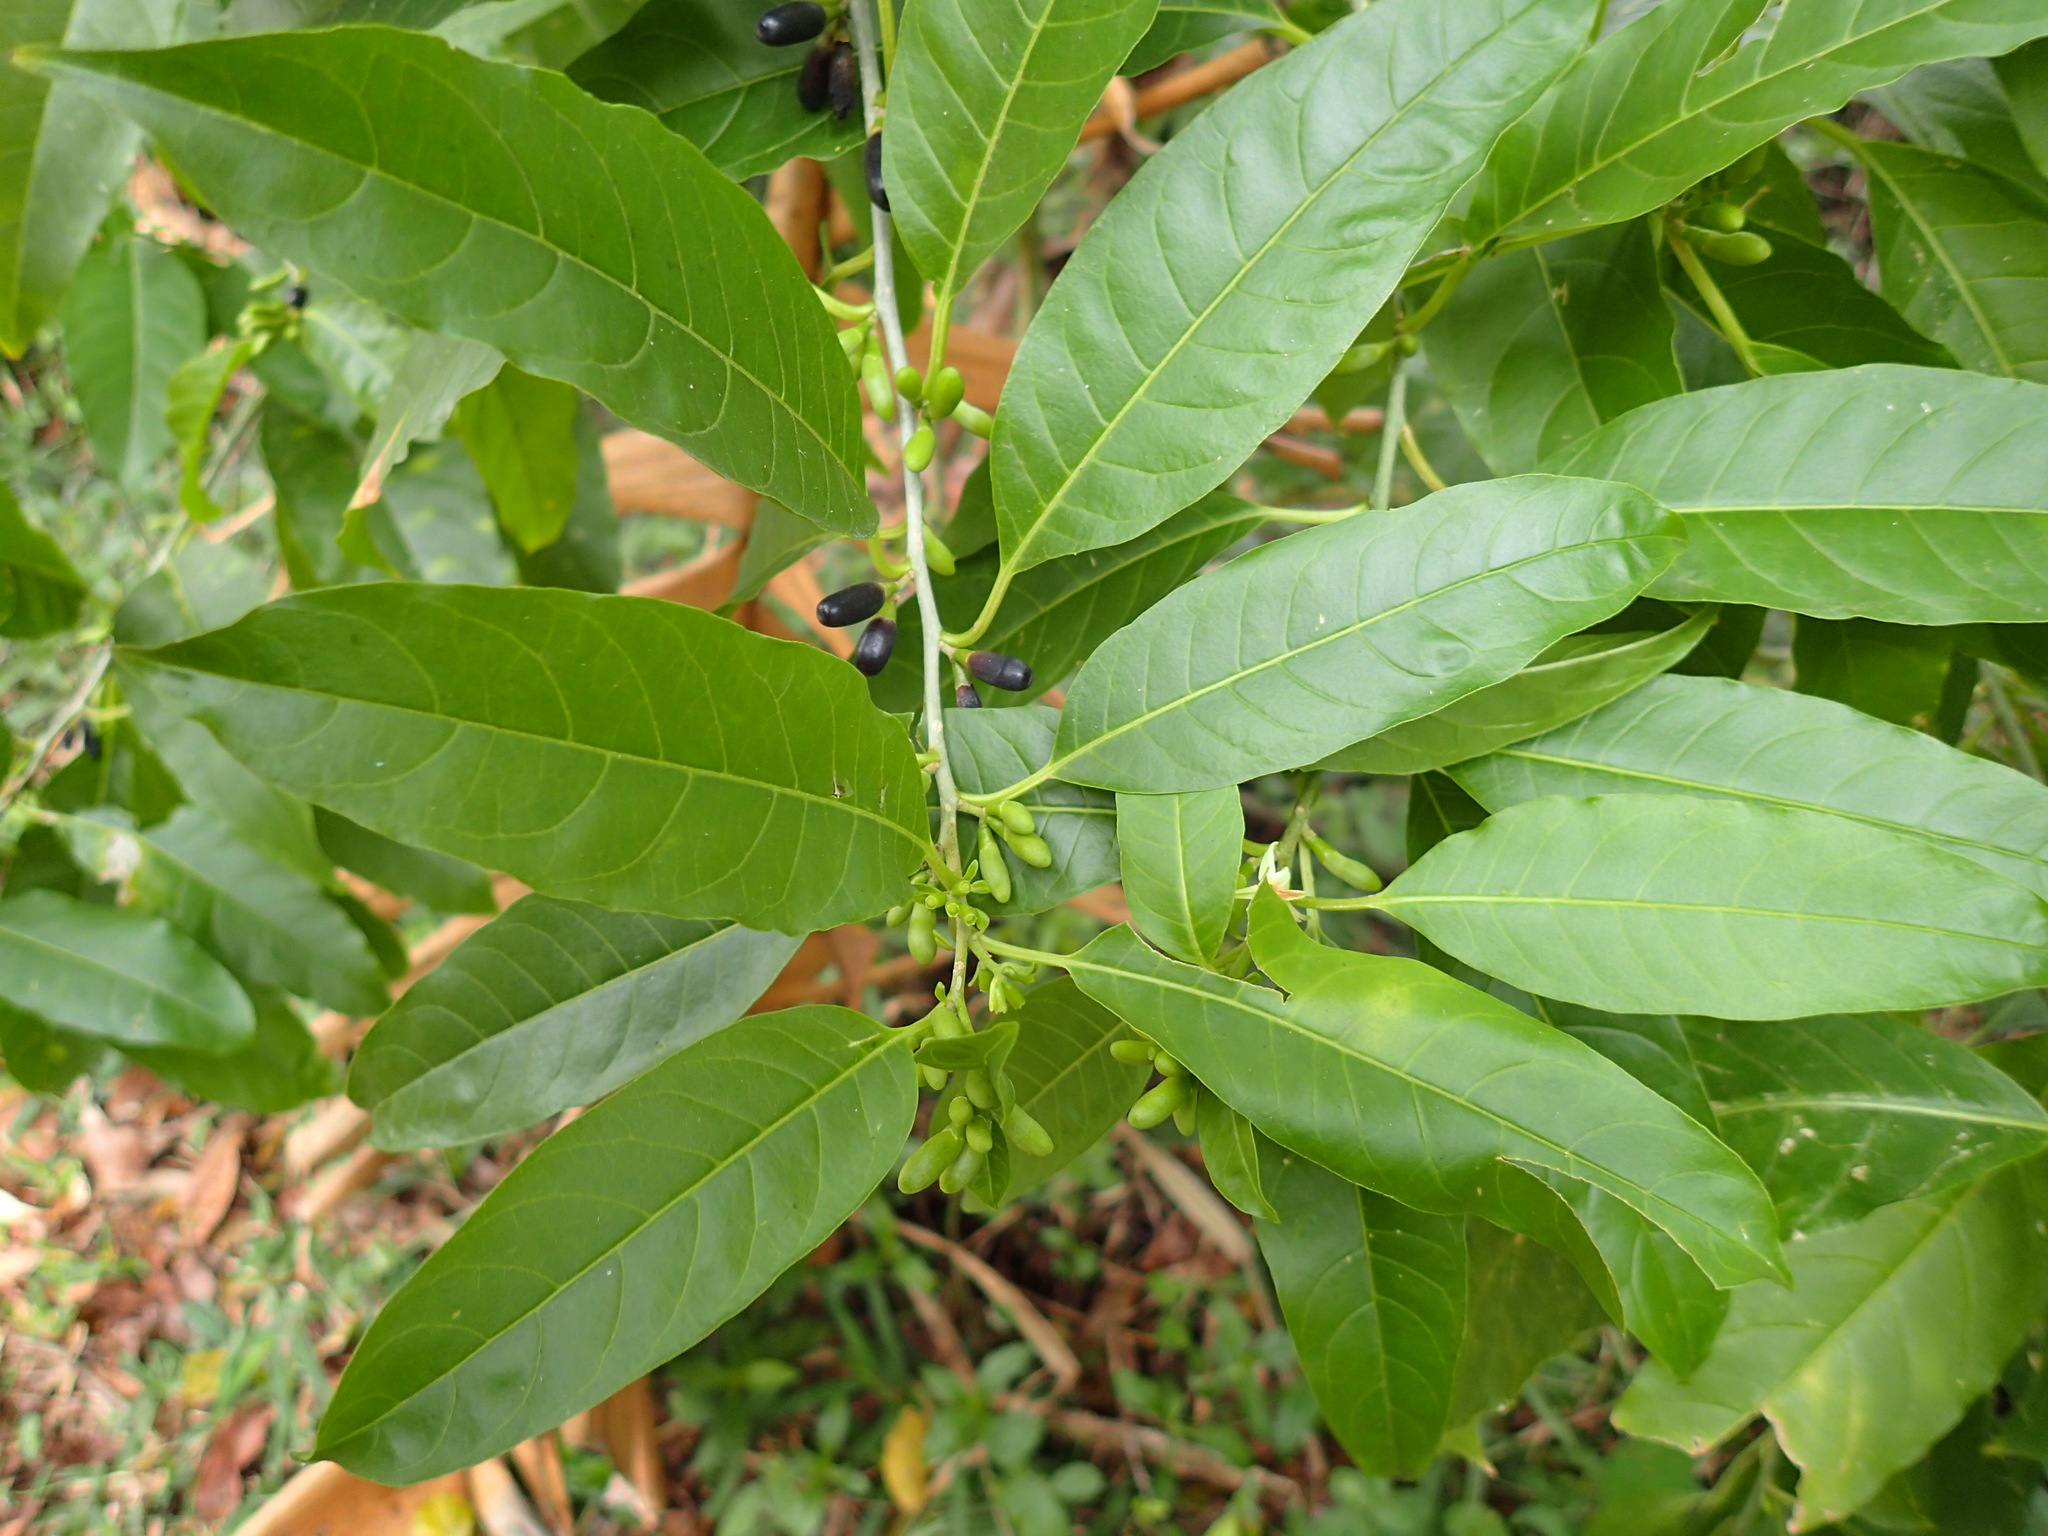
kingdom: Plantae
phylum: Tracheophyta
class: Magnoliopsida
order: Solanales
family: Solanaceae
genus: Cestrum
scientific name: Cestrum laevigatum
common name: Inkberry
